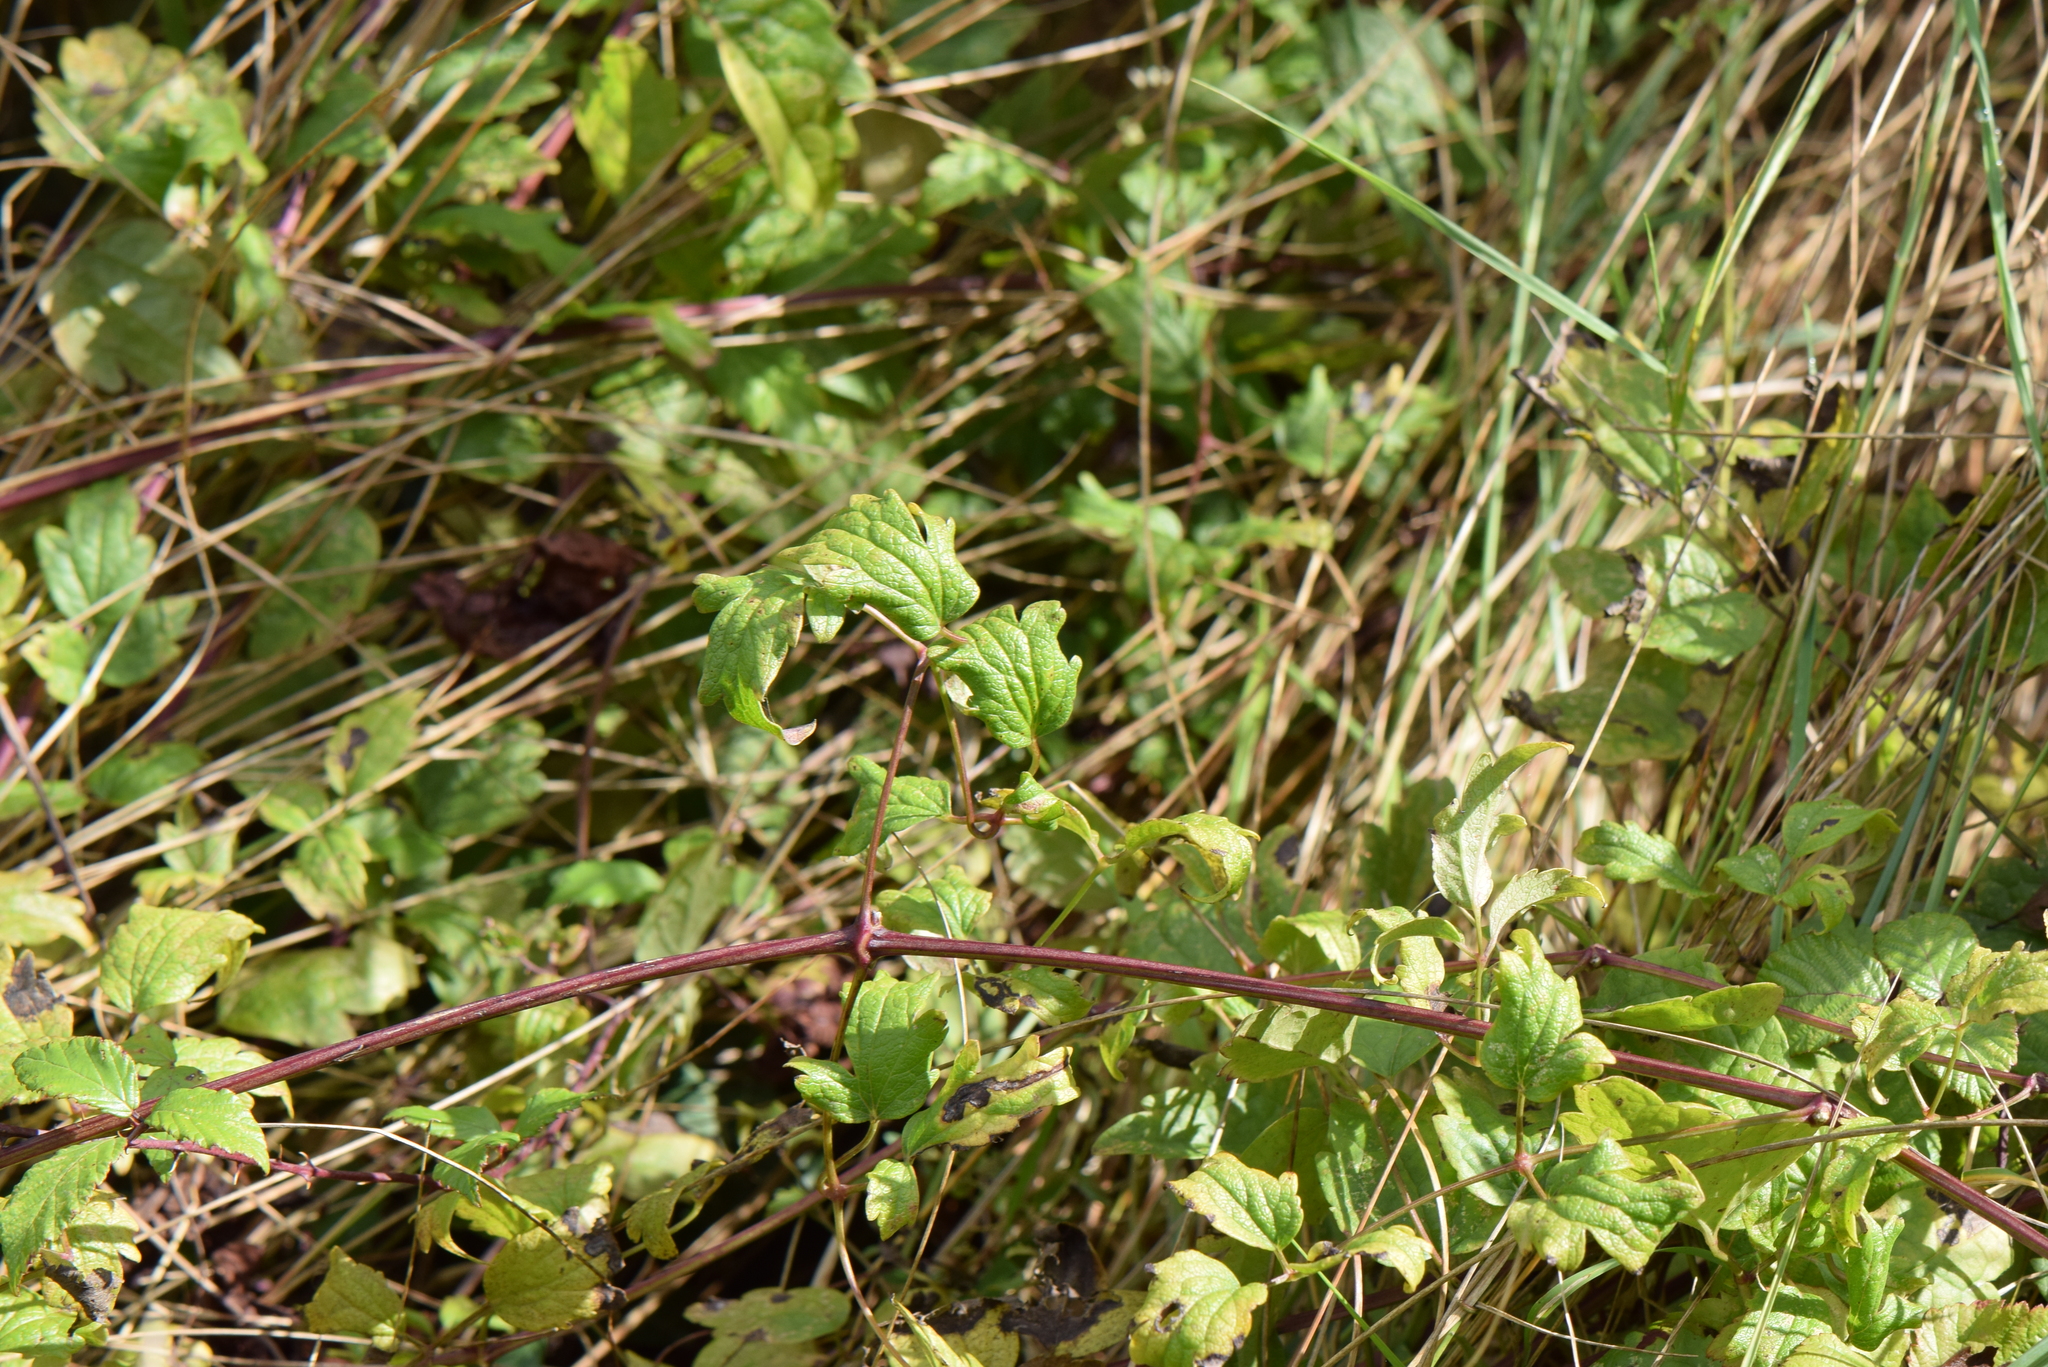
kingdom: Plantae
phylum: Tracheophyta
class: Magnoliopsida
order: Ranunculales
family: Ranunculaceae
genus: Clematis
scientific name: Clematis vitalba
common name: Evergreen clematis
